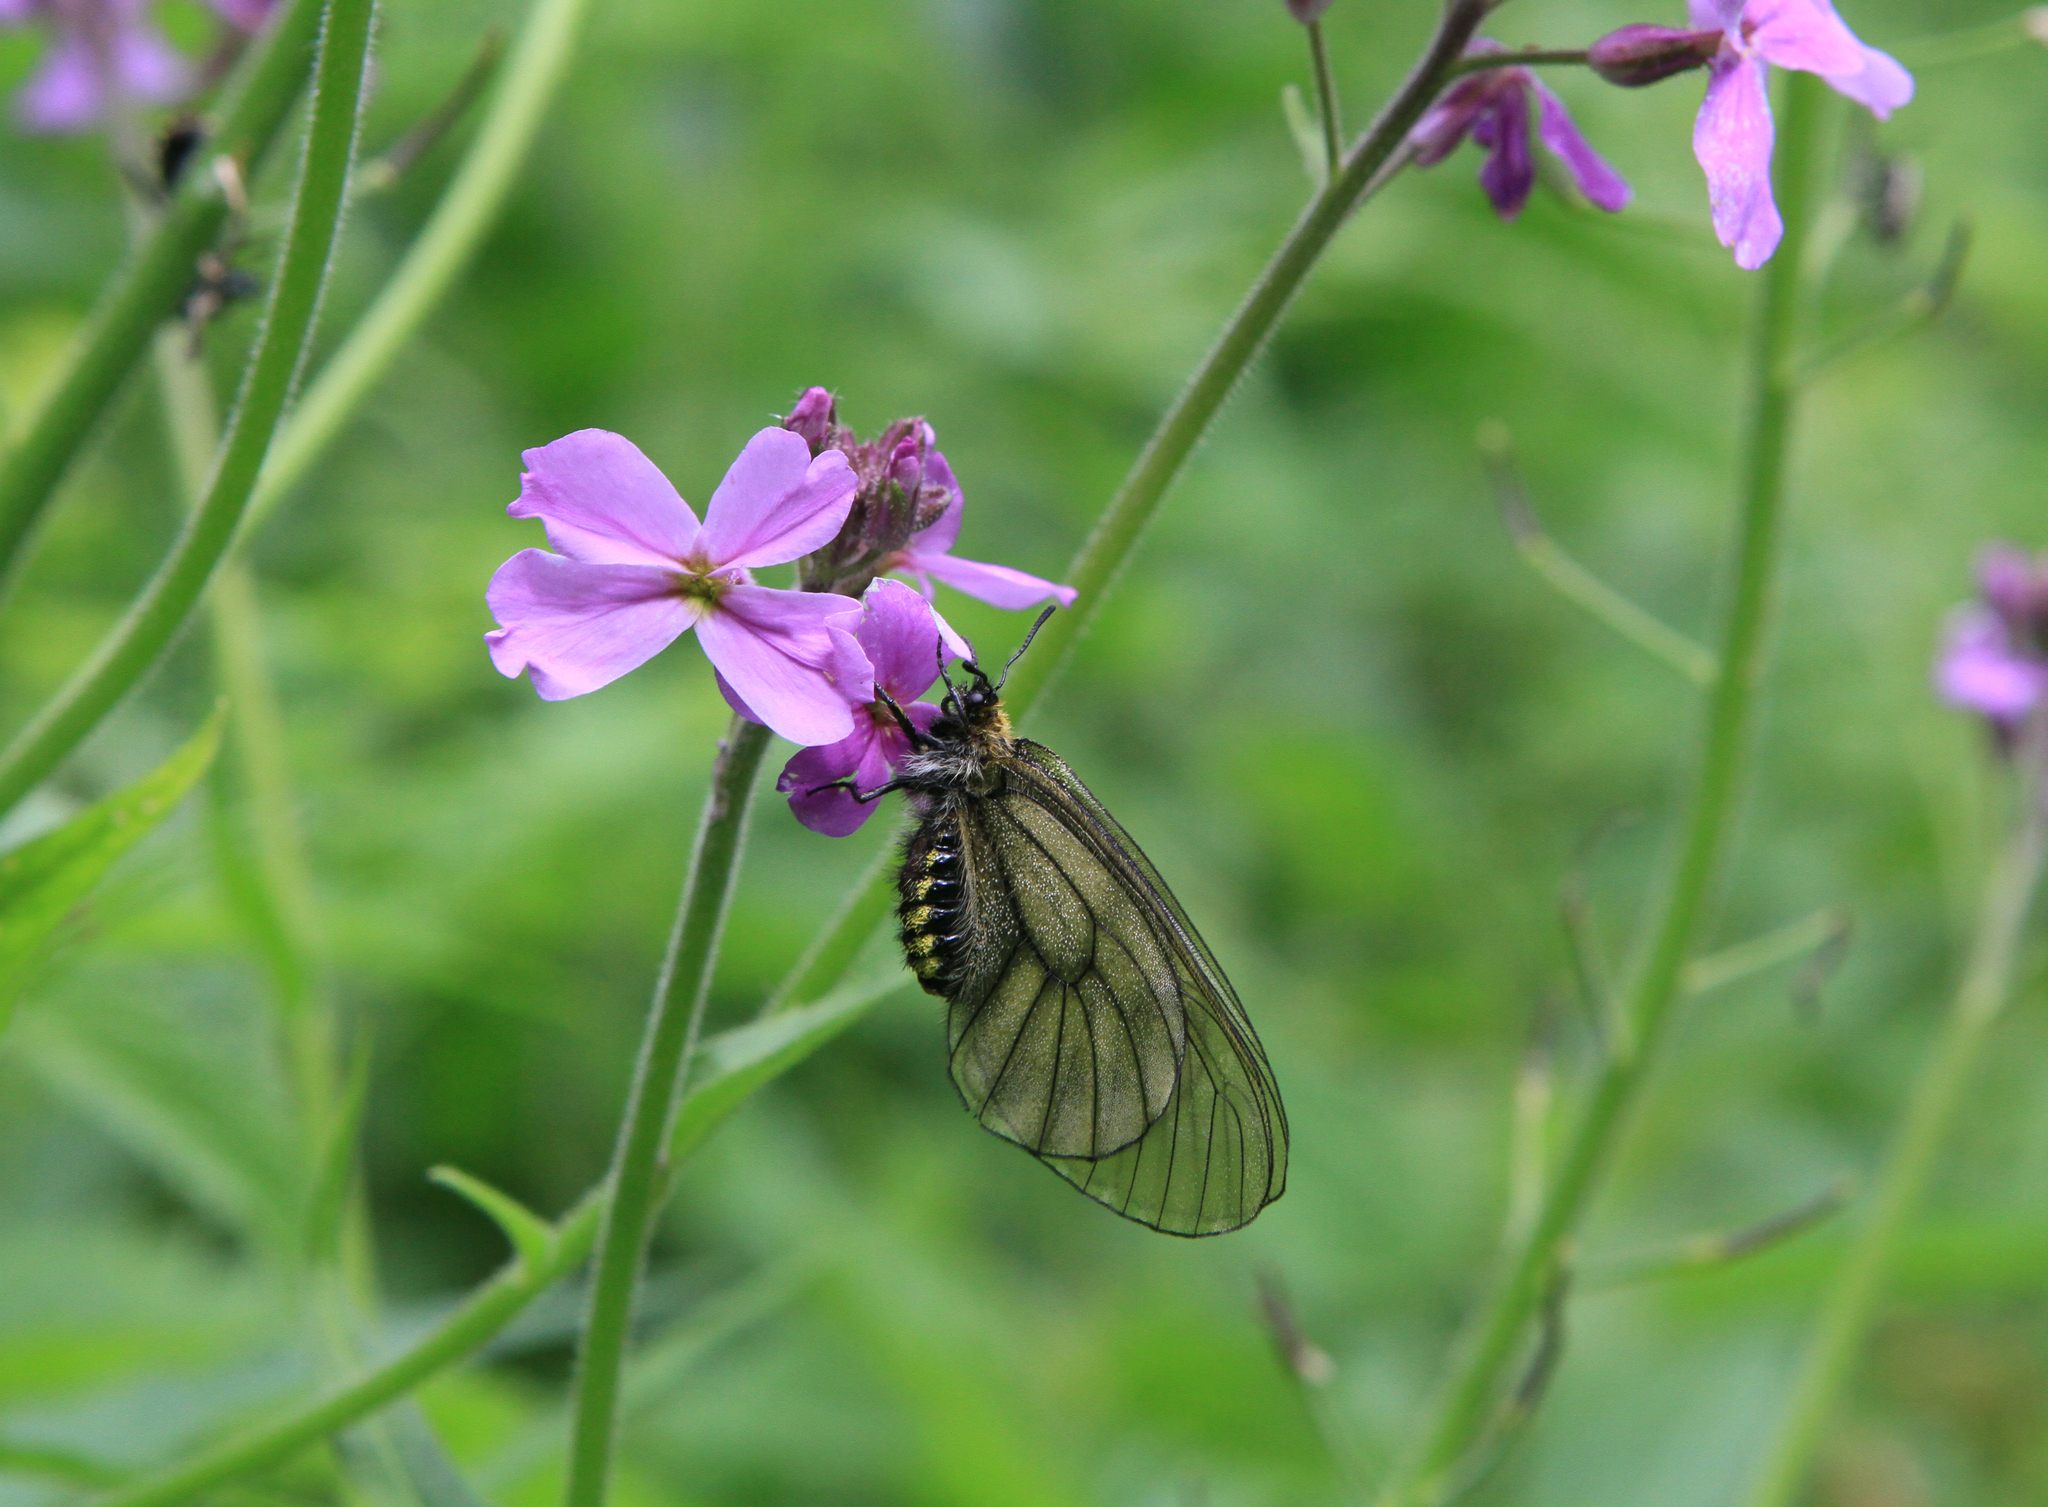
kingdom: Plantae
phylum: Tracheophyta
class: Magnoliopsida
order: Brassicales
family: Brassicaceae
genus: Hesperis
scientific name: Hesperis sibirica
